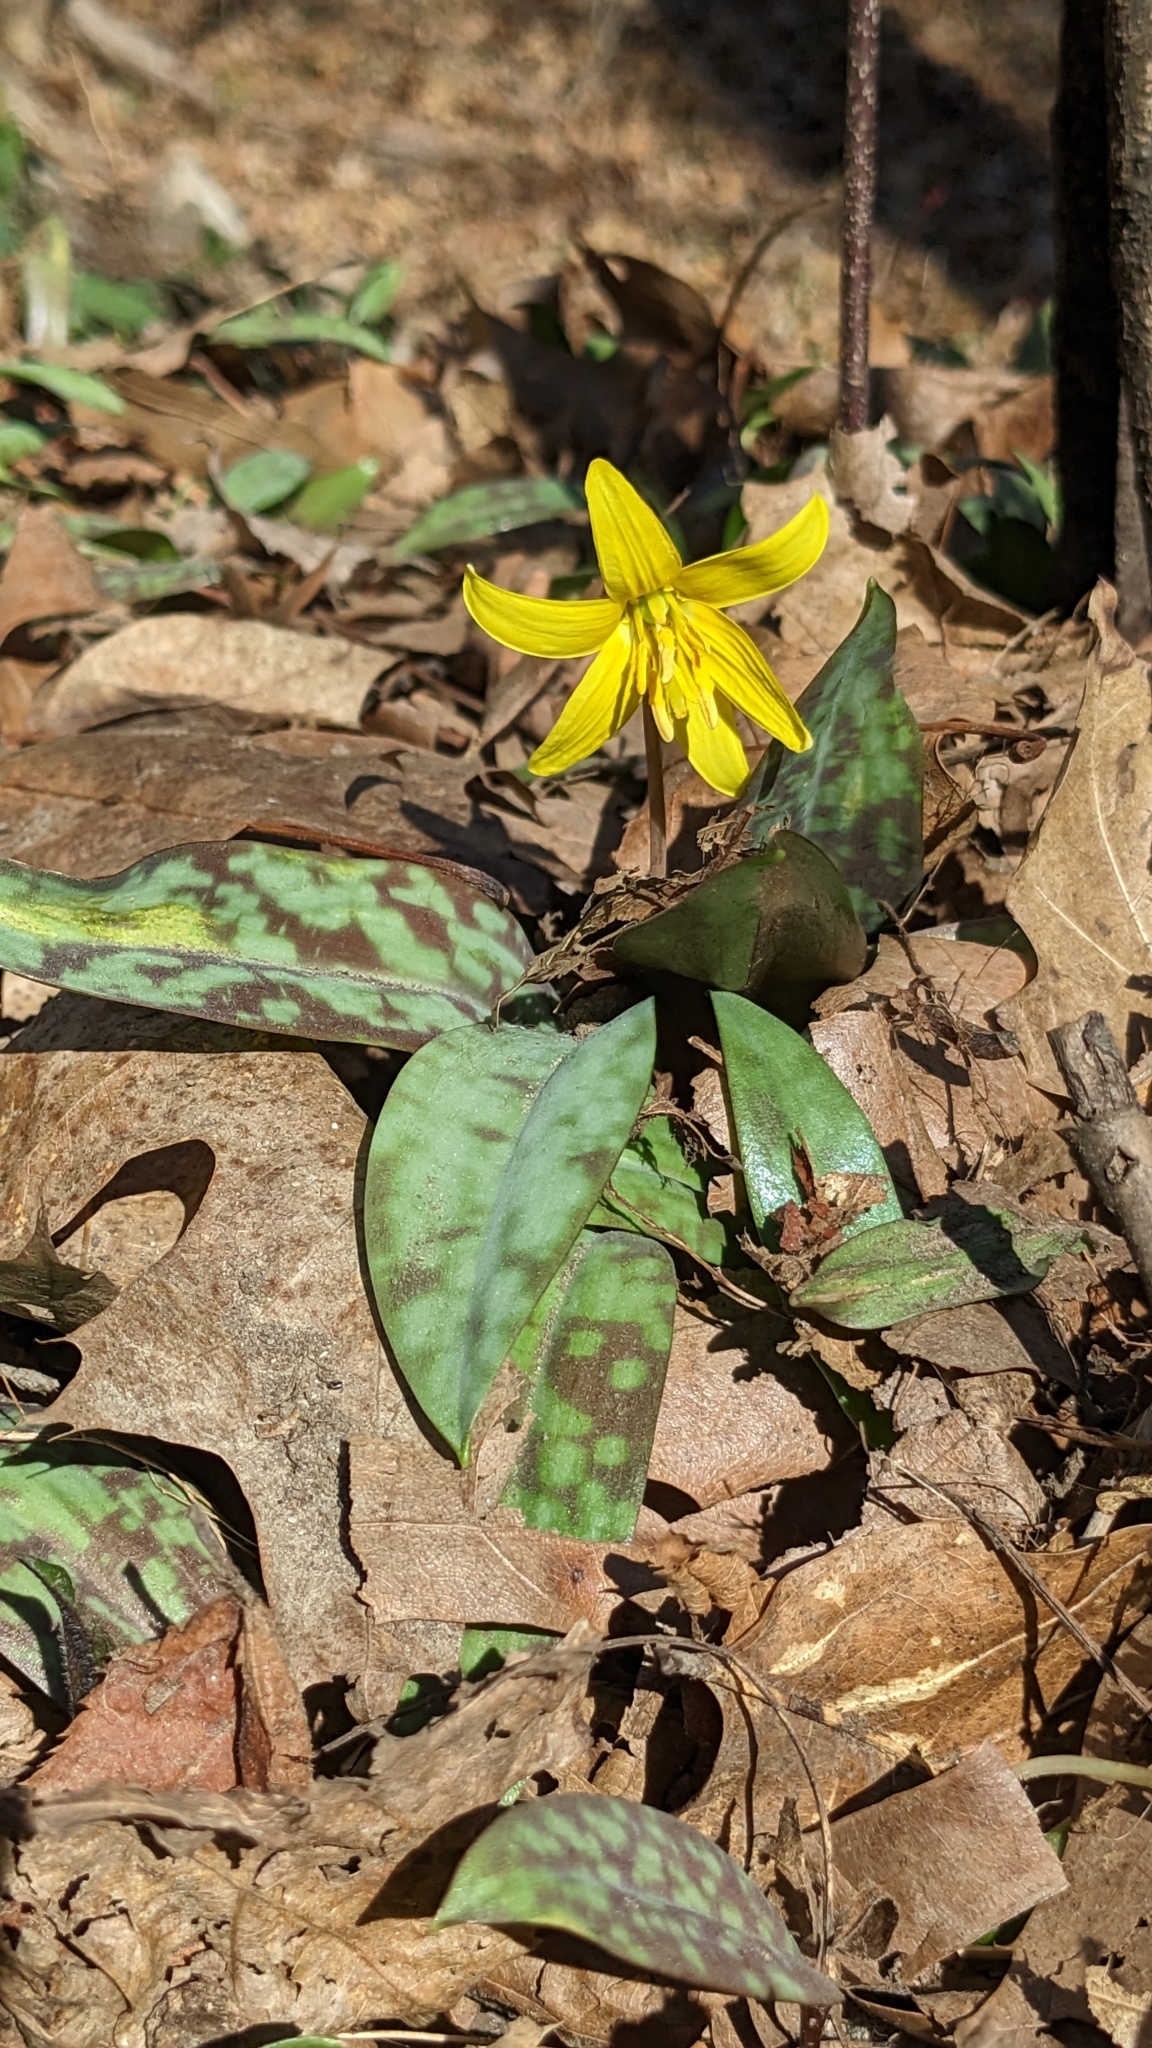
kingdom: Plantae
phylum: Tracheophyta
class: Liliopsida
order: Liliales
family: Liliaceae
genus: Erythronium
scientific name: Erythronium americanum
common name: Yellow adder's-tongue
